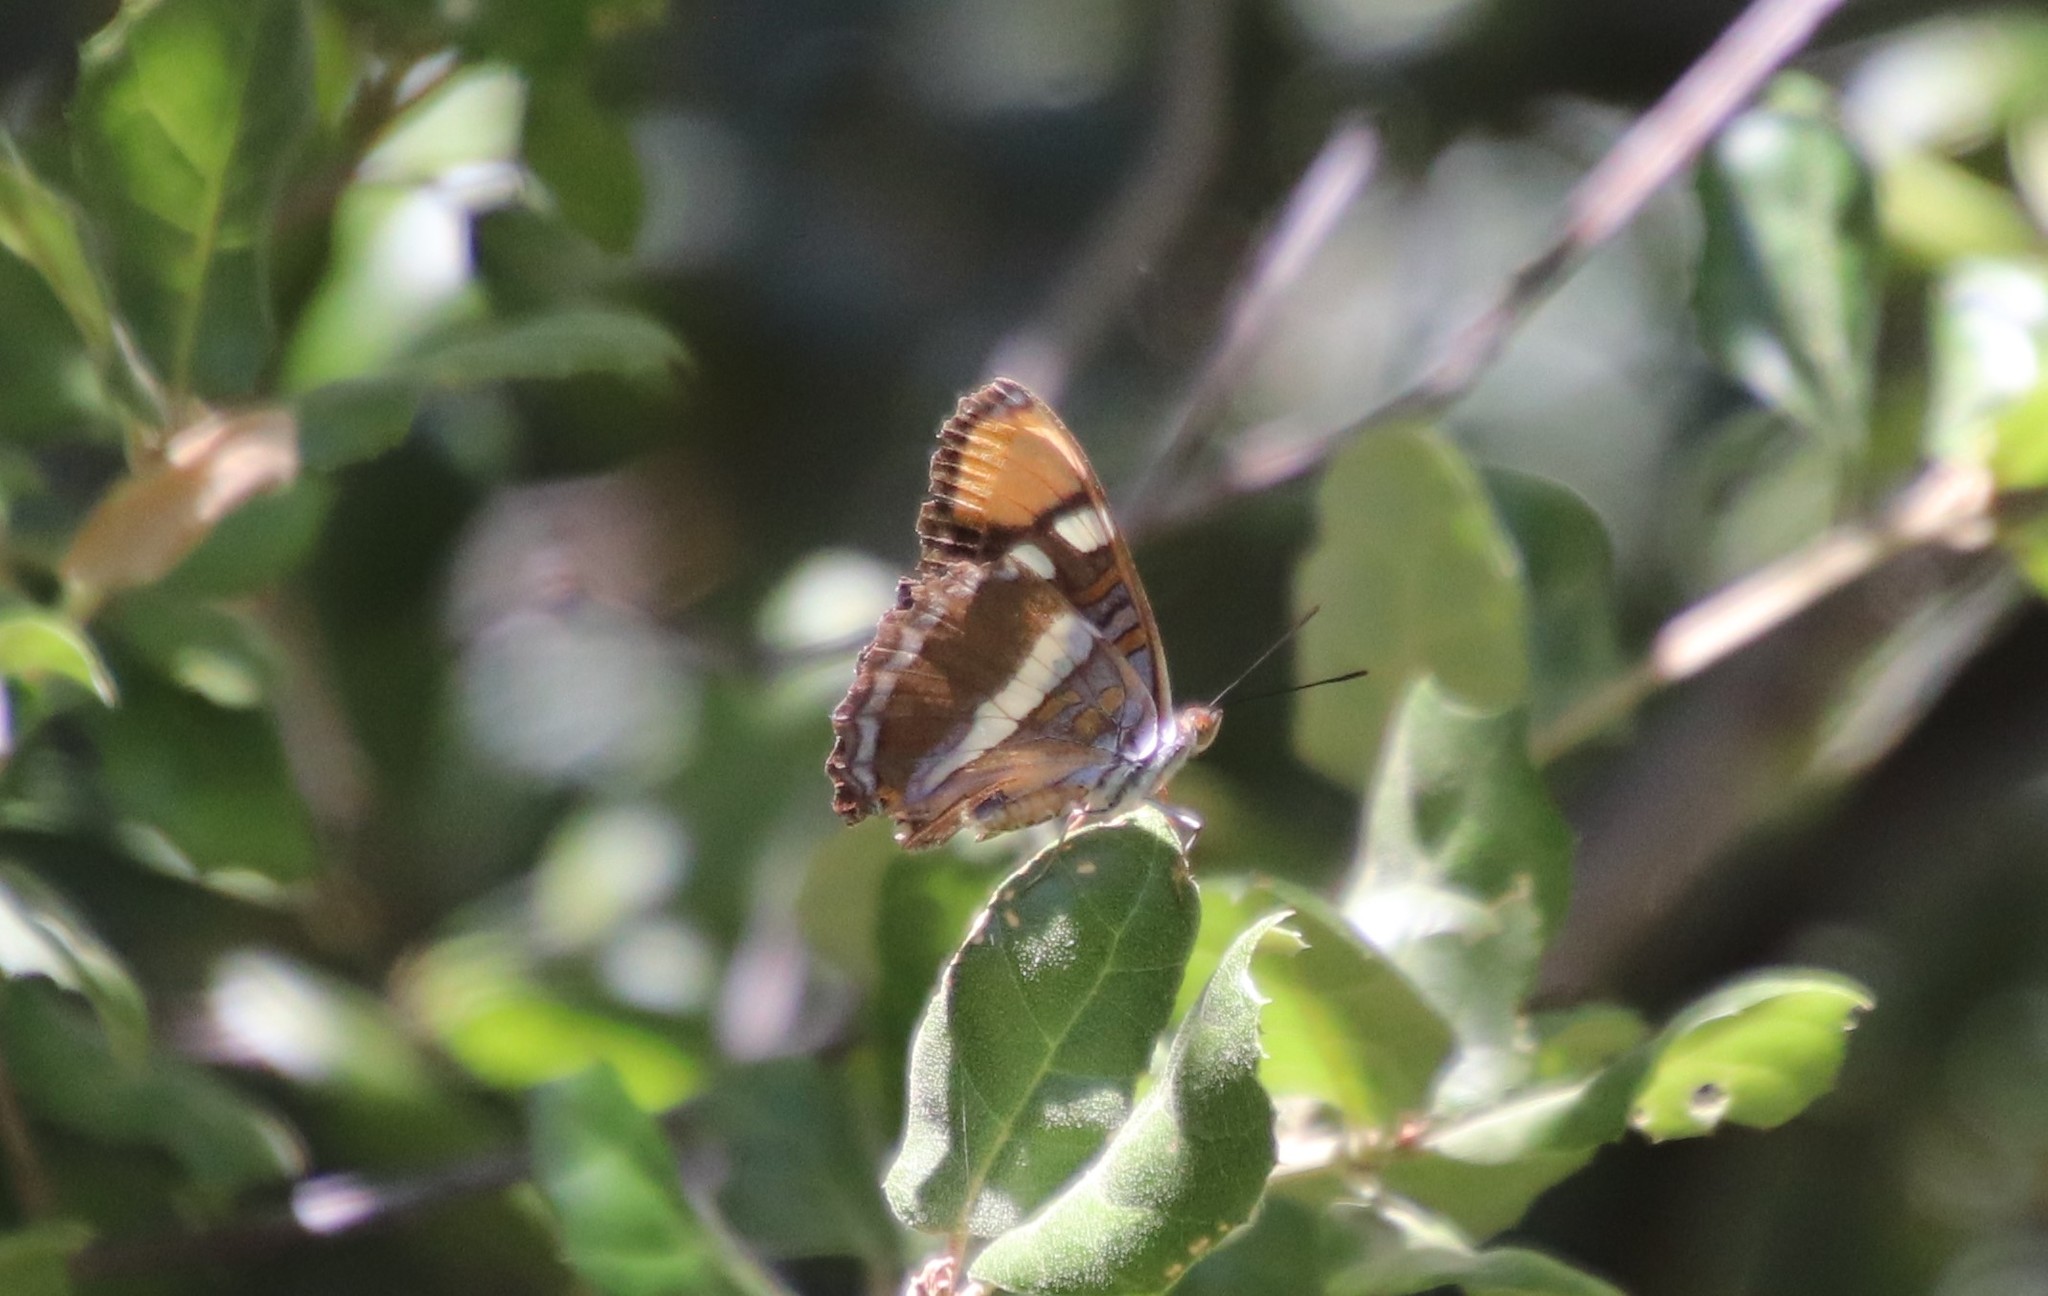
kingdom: Animalia
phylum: Arthropoda
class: Insecta
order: Lepidoptera
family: Nymphalidae
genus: Limenitis
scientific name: Limenitis bredowii
